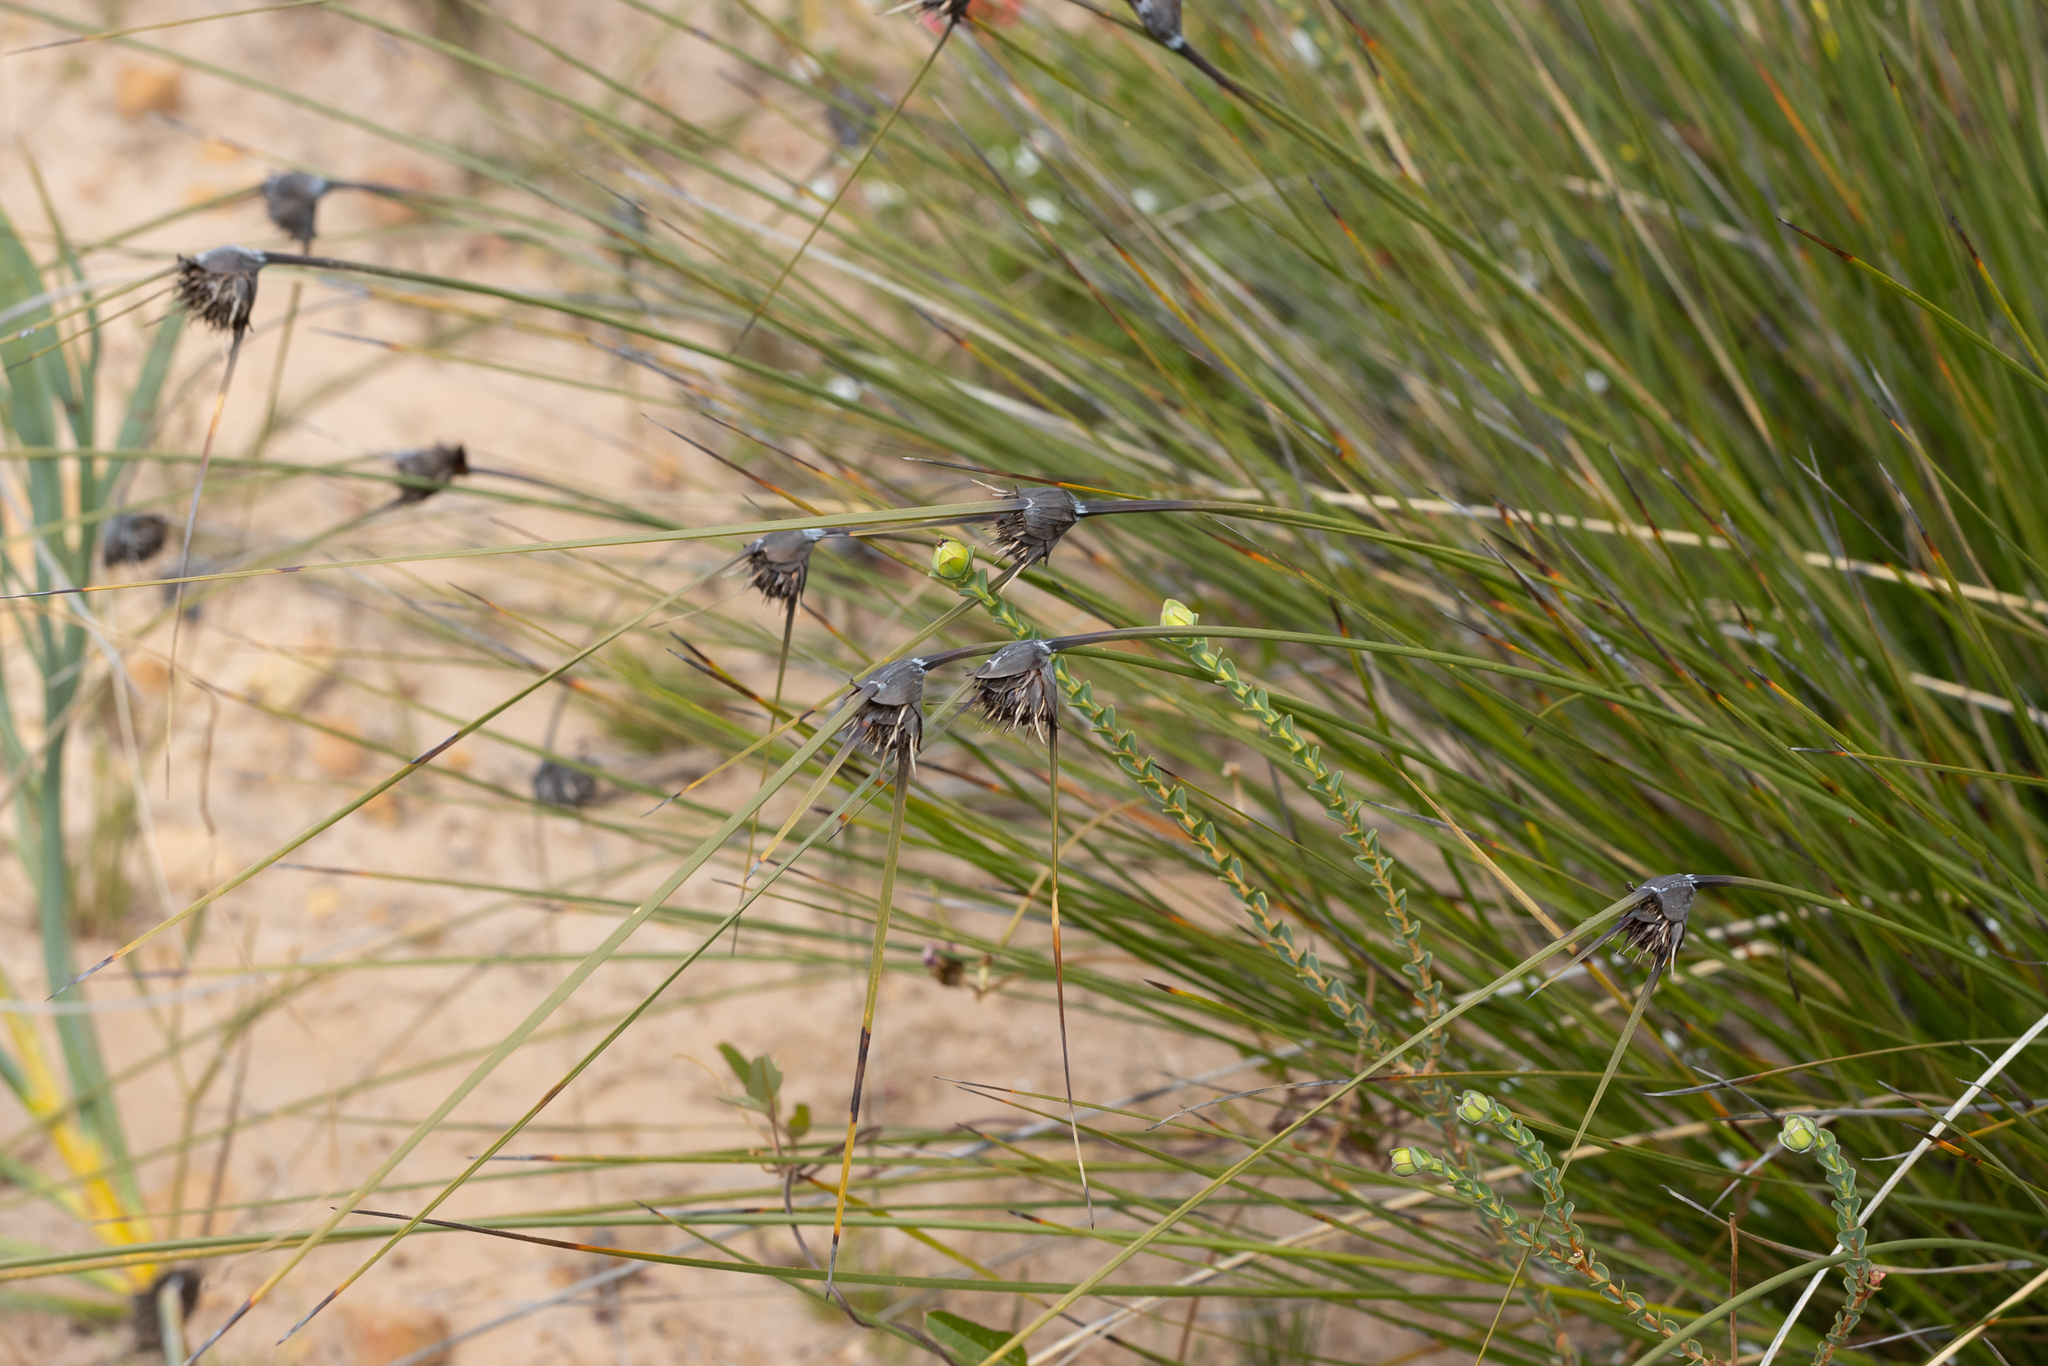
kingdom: Plantae
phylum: Tracheophyta
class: Liliopsida
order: Poales
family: Cyperaceae
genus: Mesomelaena
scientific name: Mesomelaena tetragona
